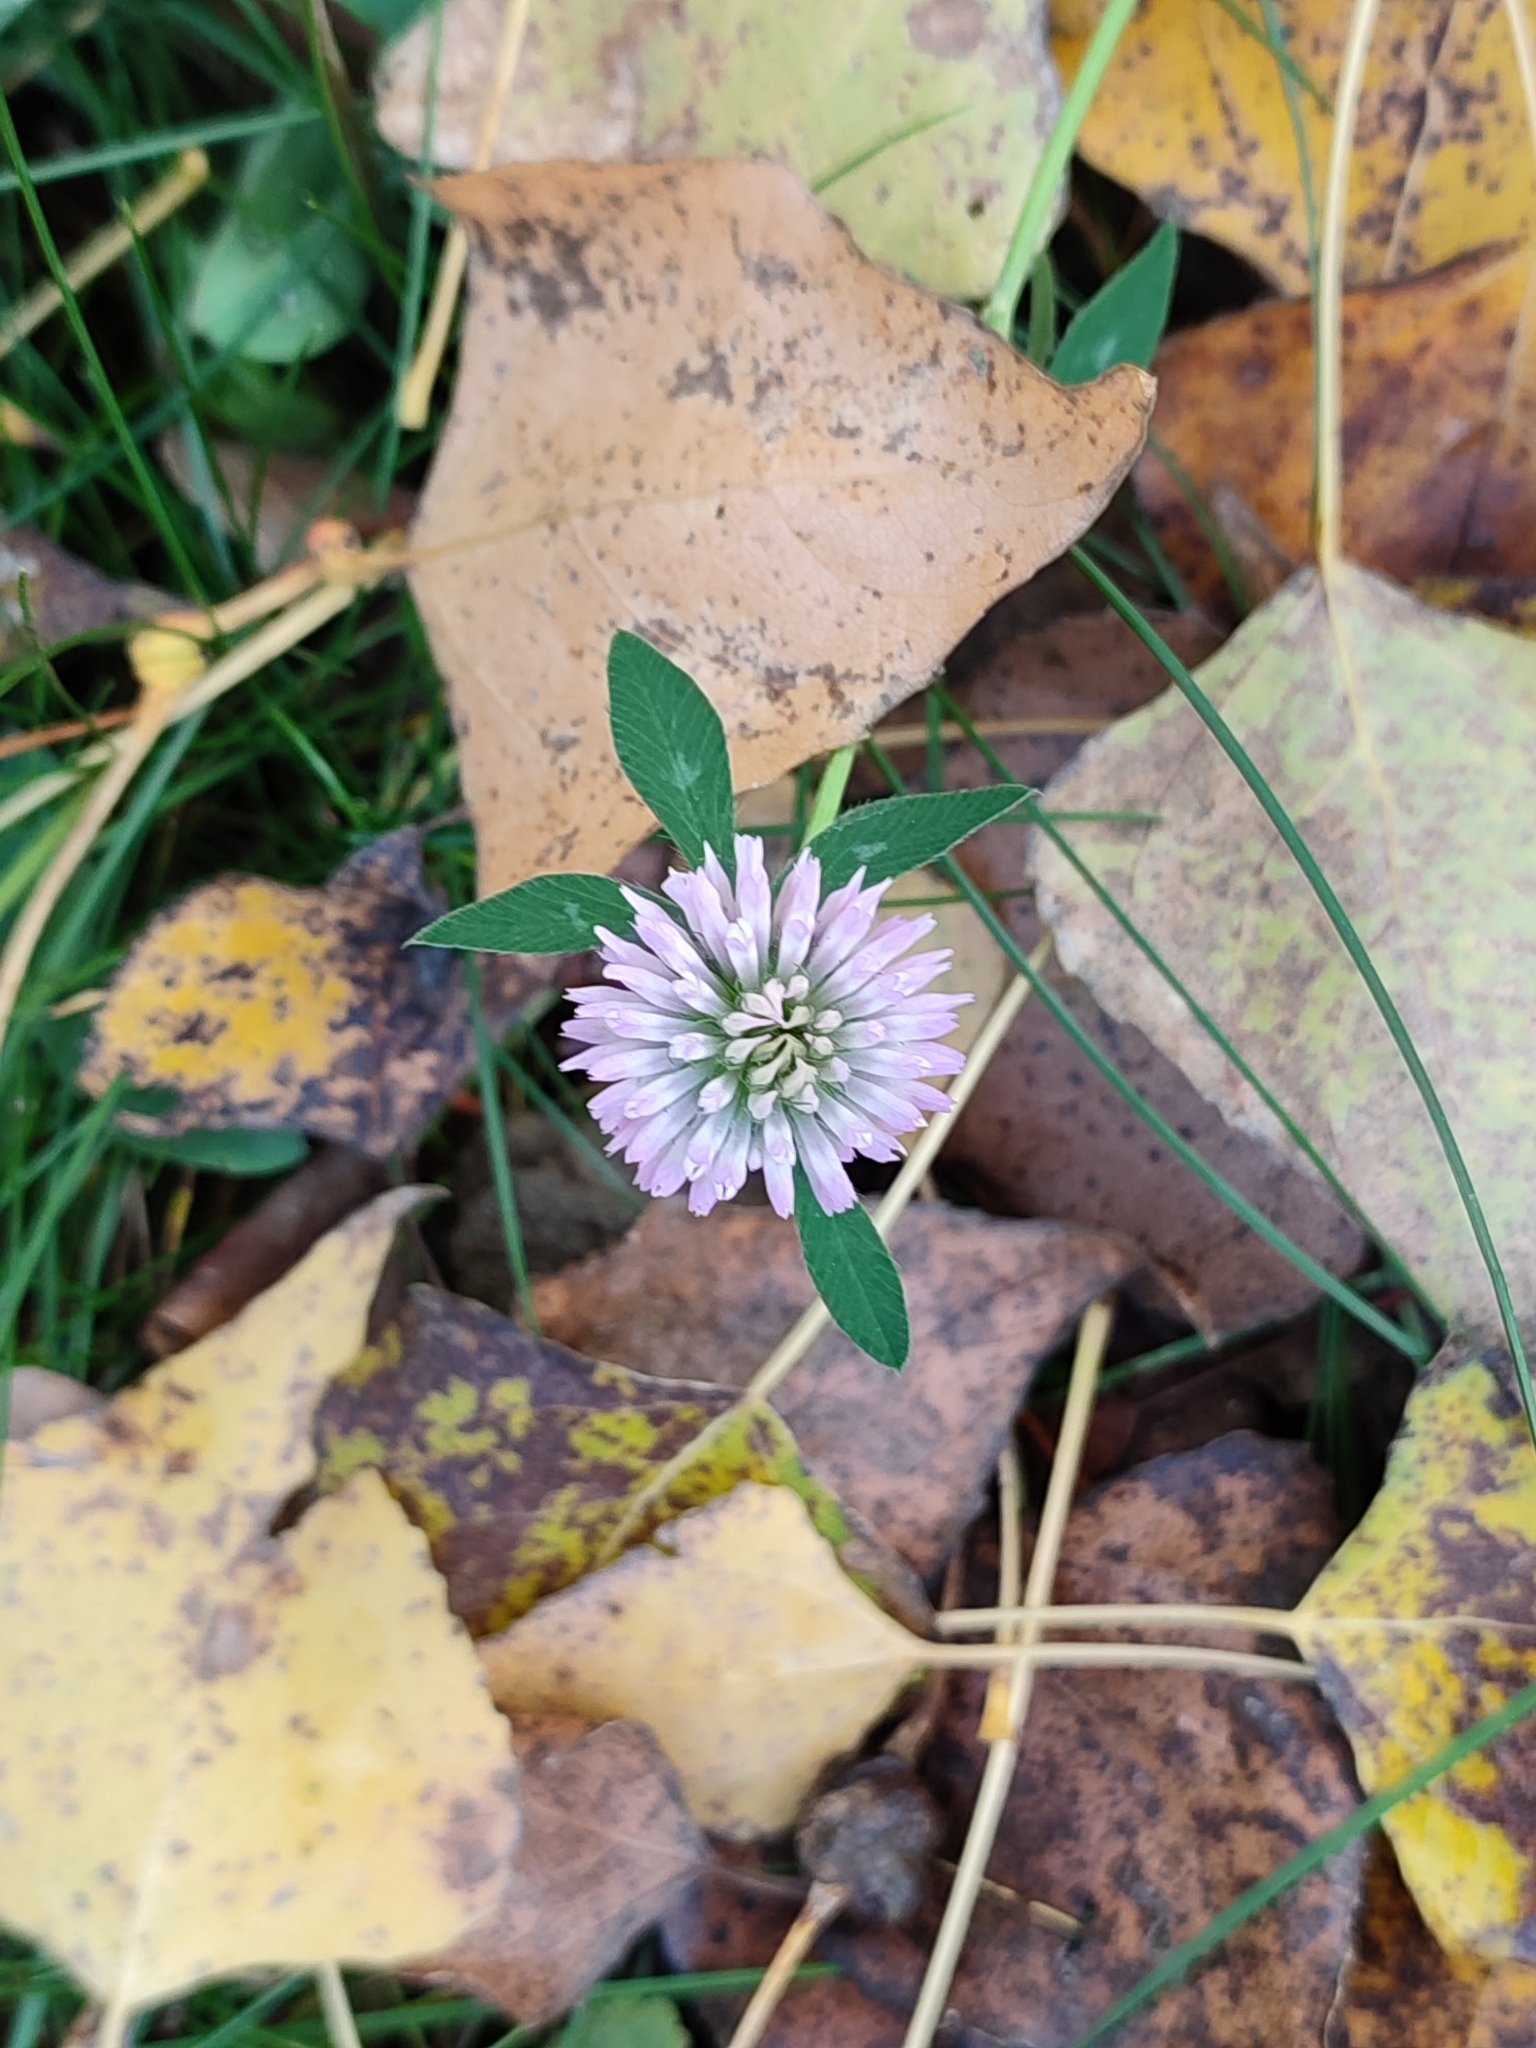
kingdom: Plantae
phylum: Tracheophyta
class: Magnoliopsida
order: Fabales
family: Fabaceae
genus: Trifolium
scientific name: Trifolium pratense
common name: Red clover
